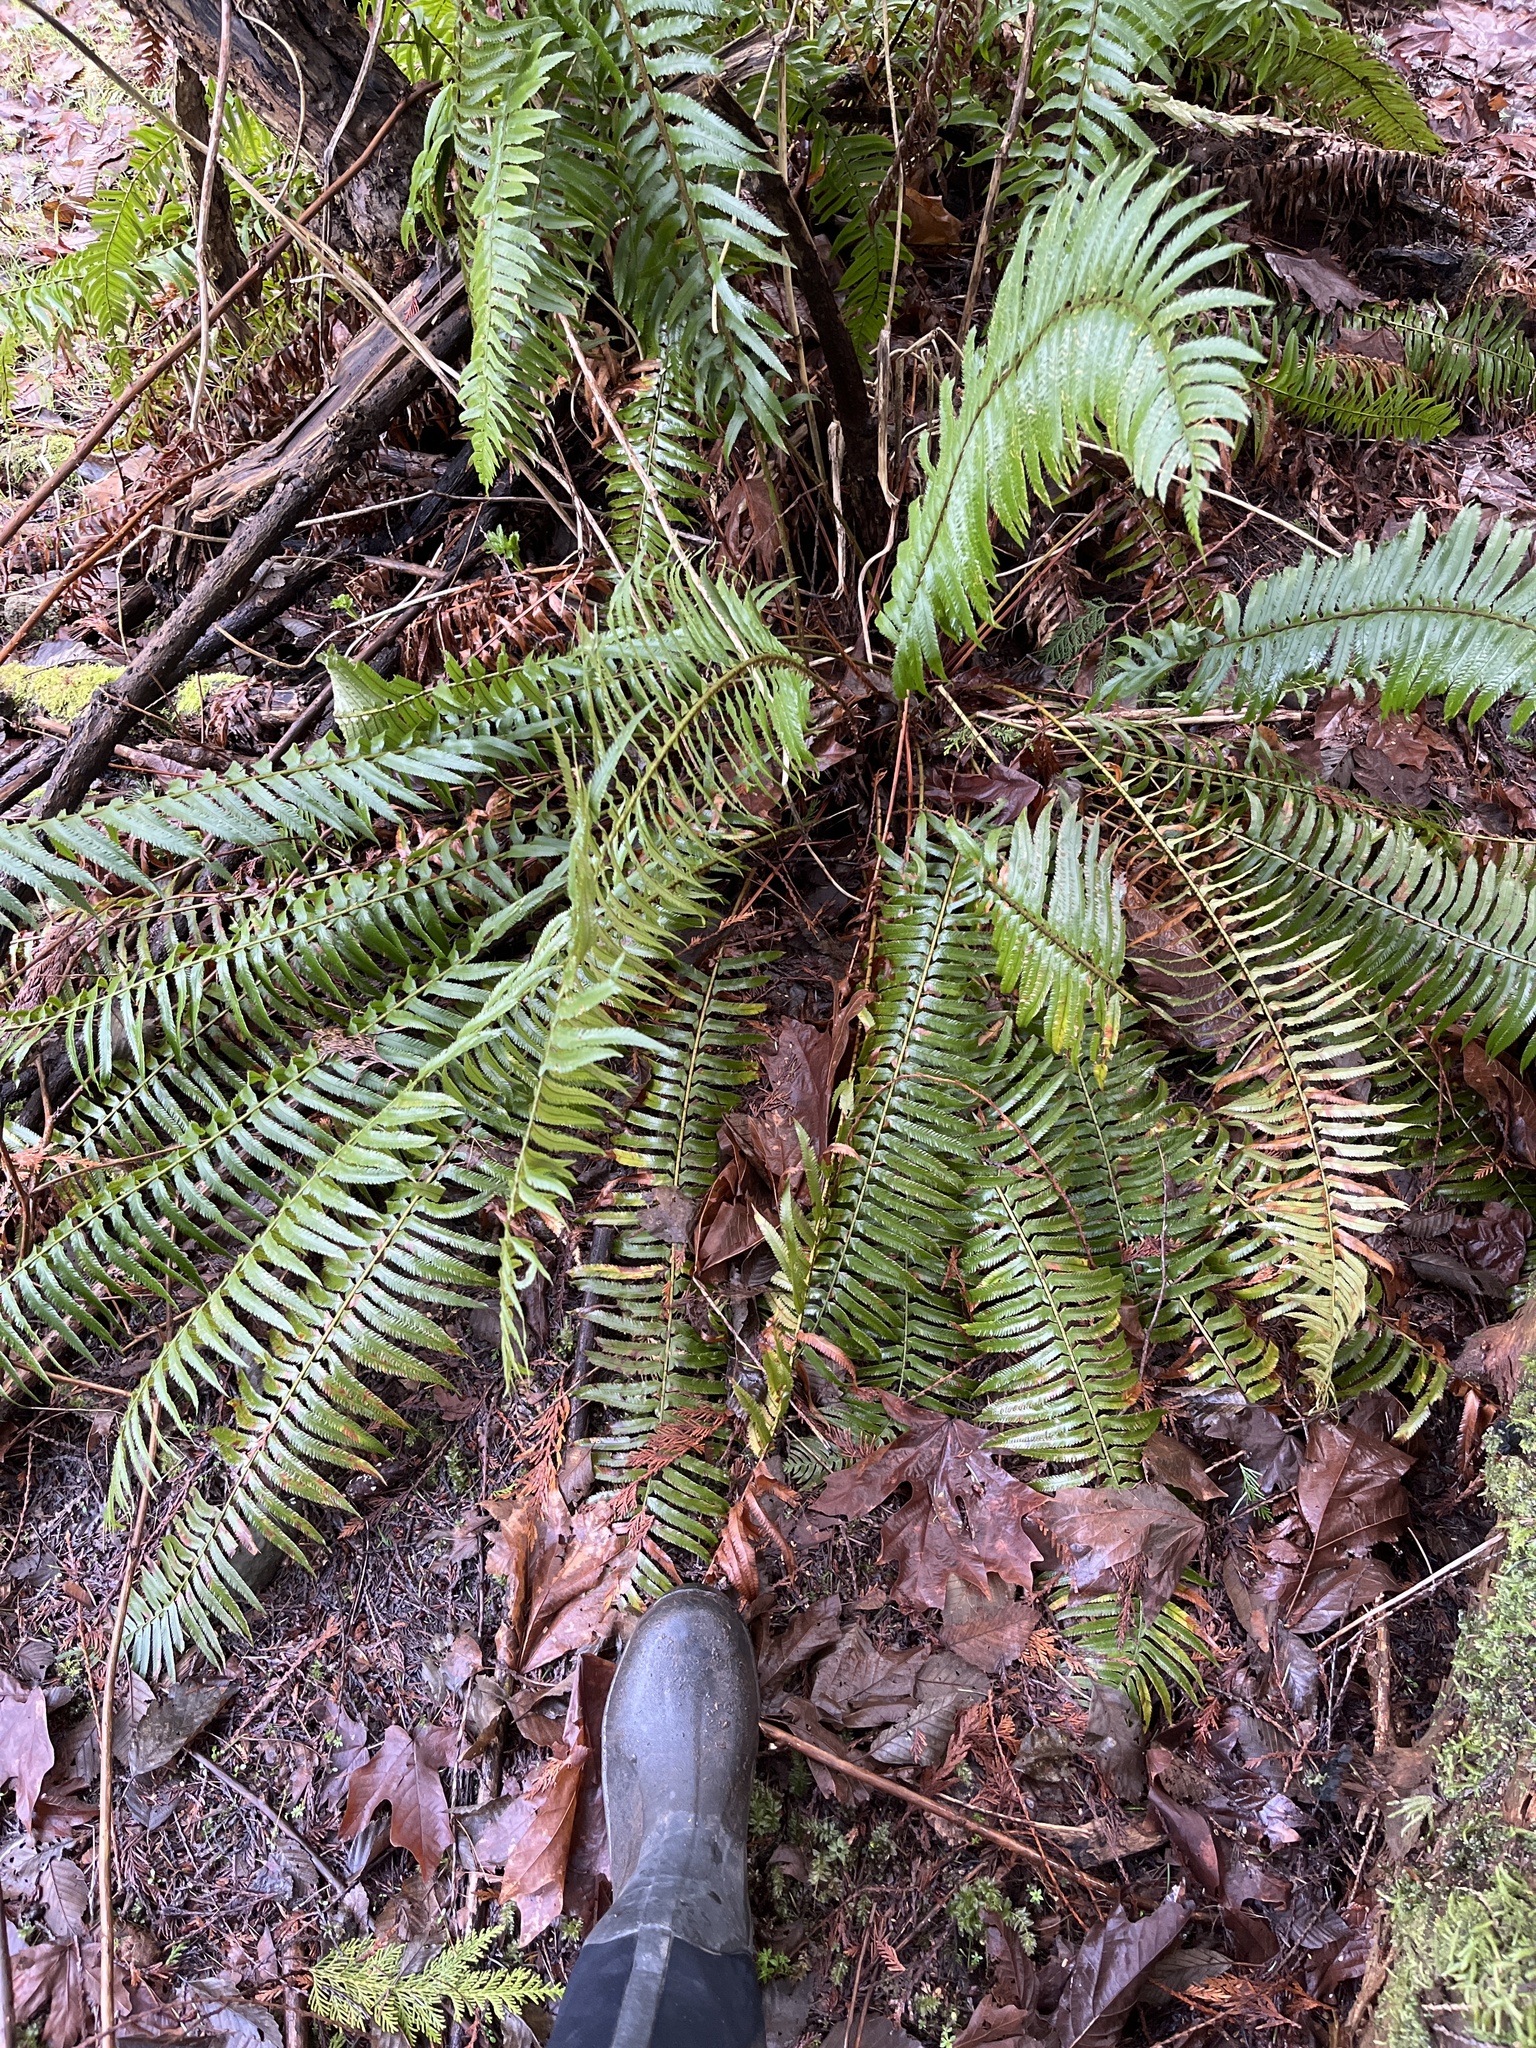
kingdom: Plantae
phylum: Tracheophyta
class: Polypodiopsida
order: Polypodiales
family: Dryopteridaceae
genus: Polystichum
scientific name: Polystichum munitum
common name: Western sword-fern
